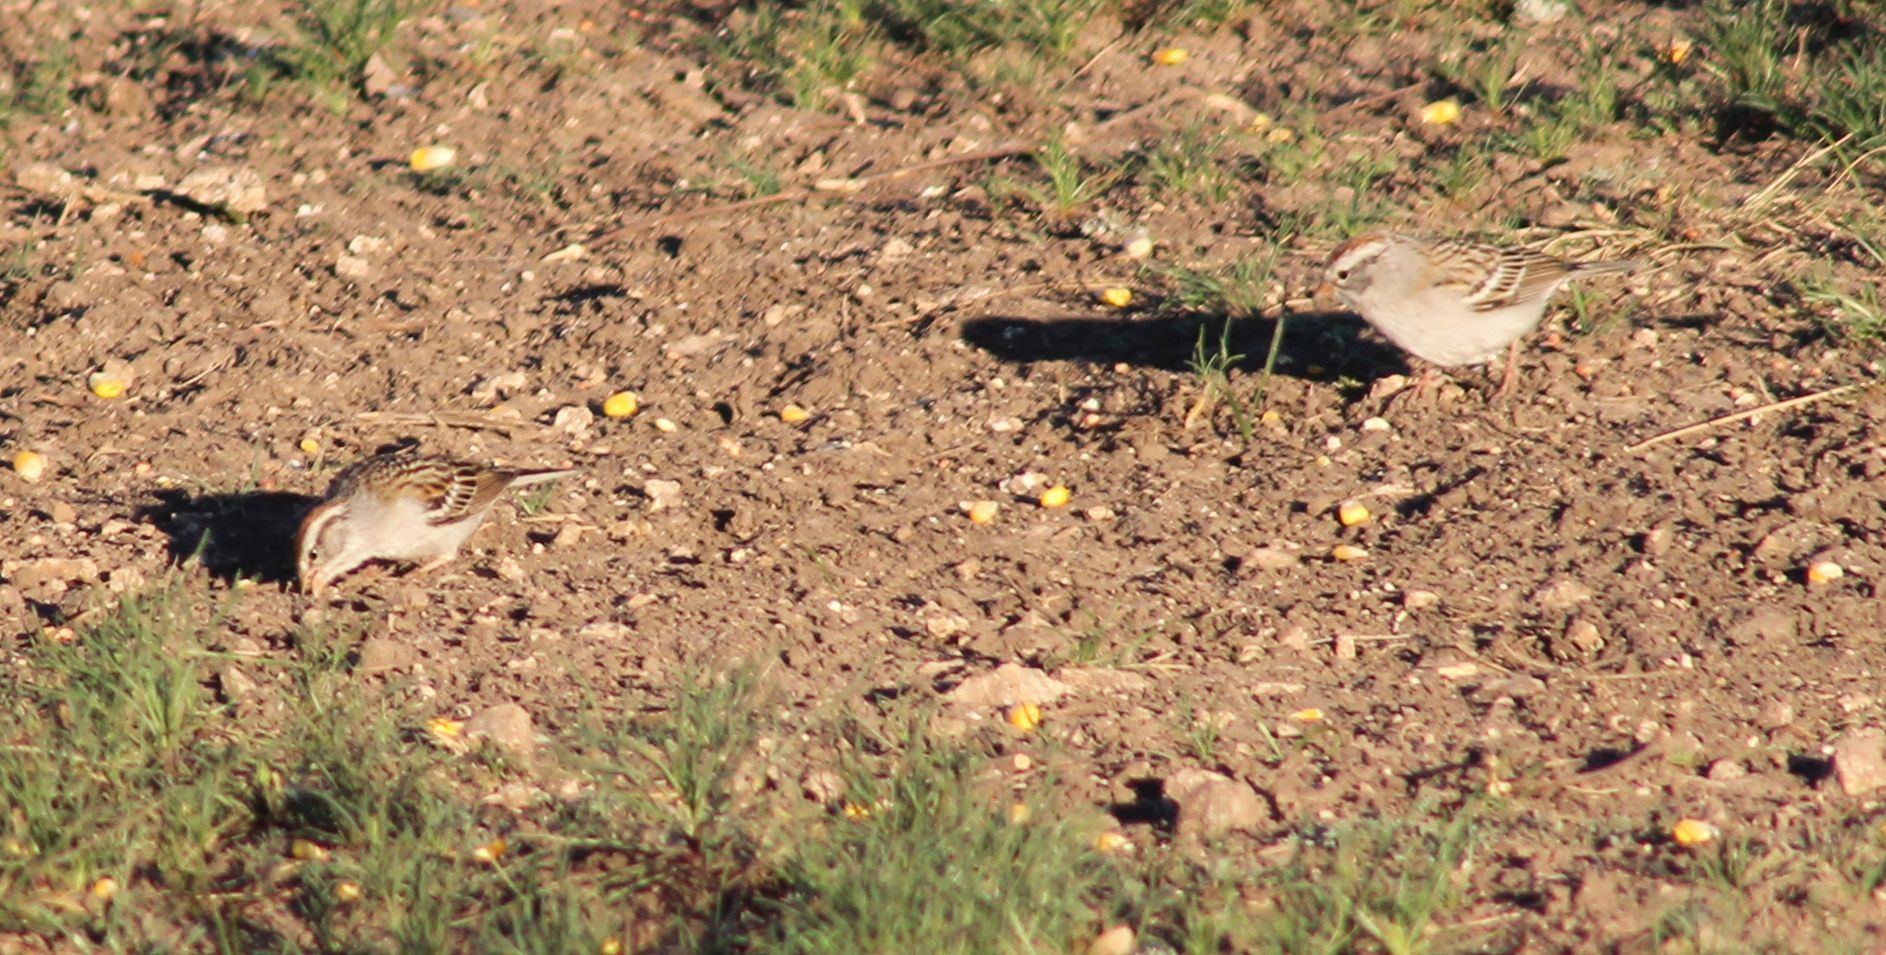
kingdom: Animalia
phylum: Chordata
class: Aves
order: Passeriformes
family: Passerellidae
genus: Spizella
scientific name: Spizella passerina
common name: Chipping sparrow
